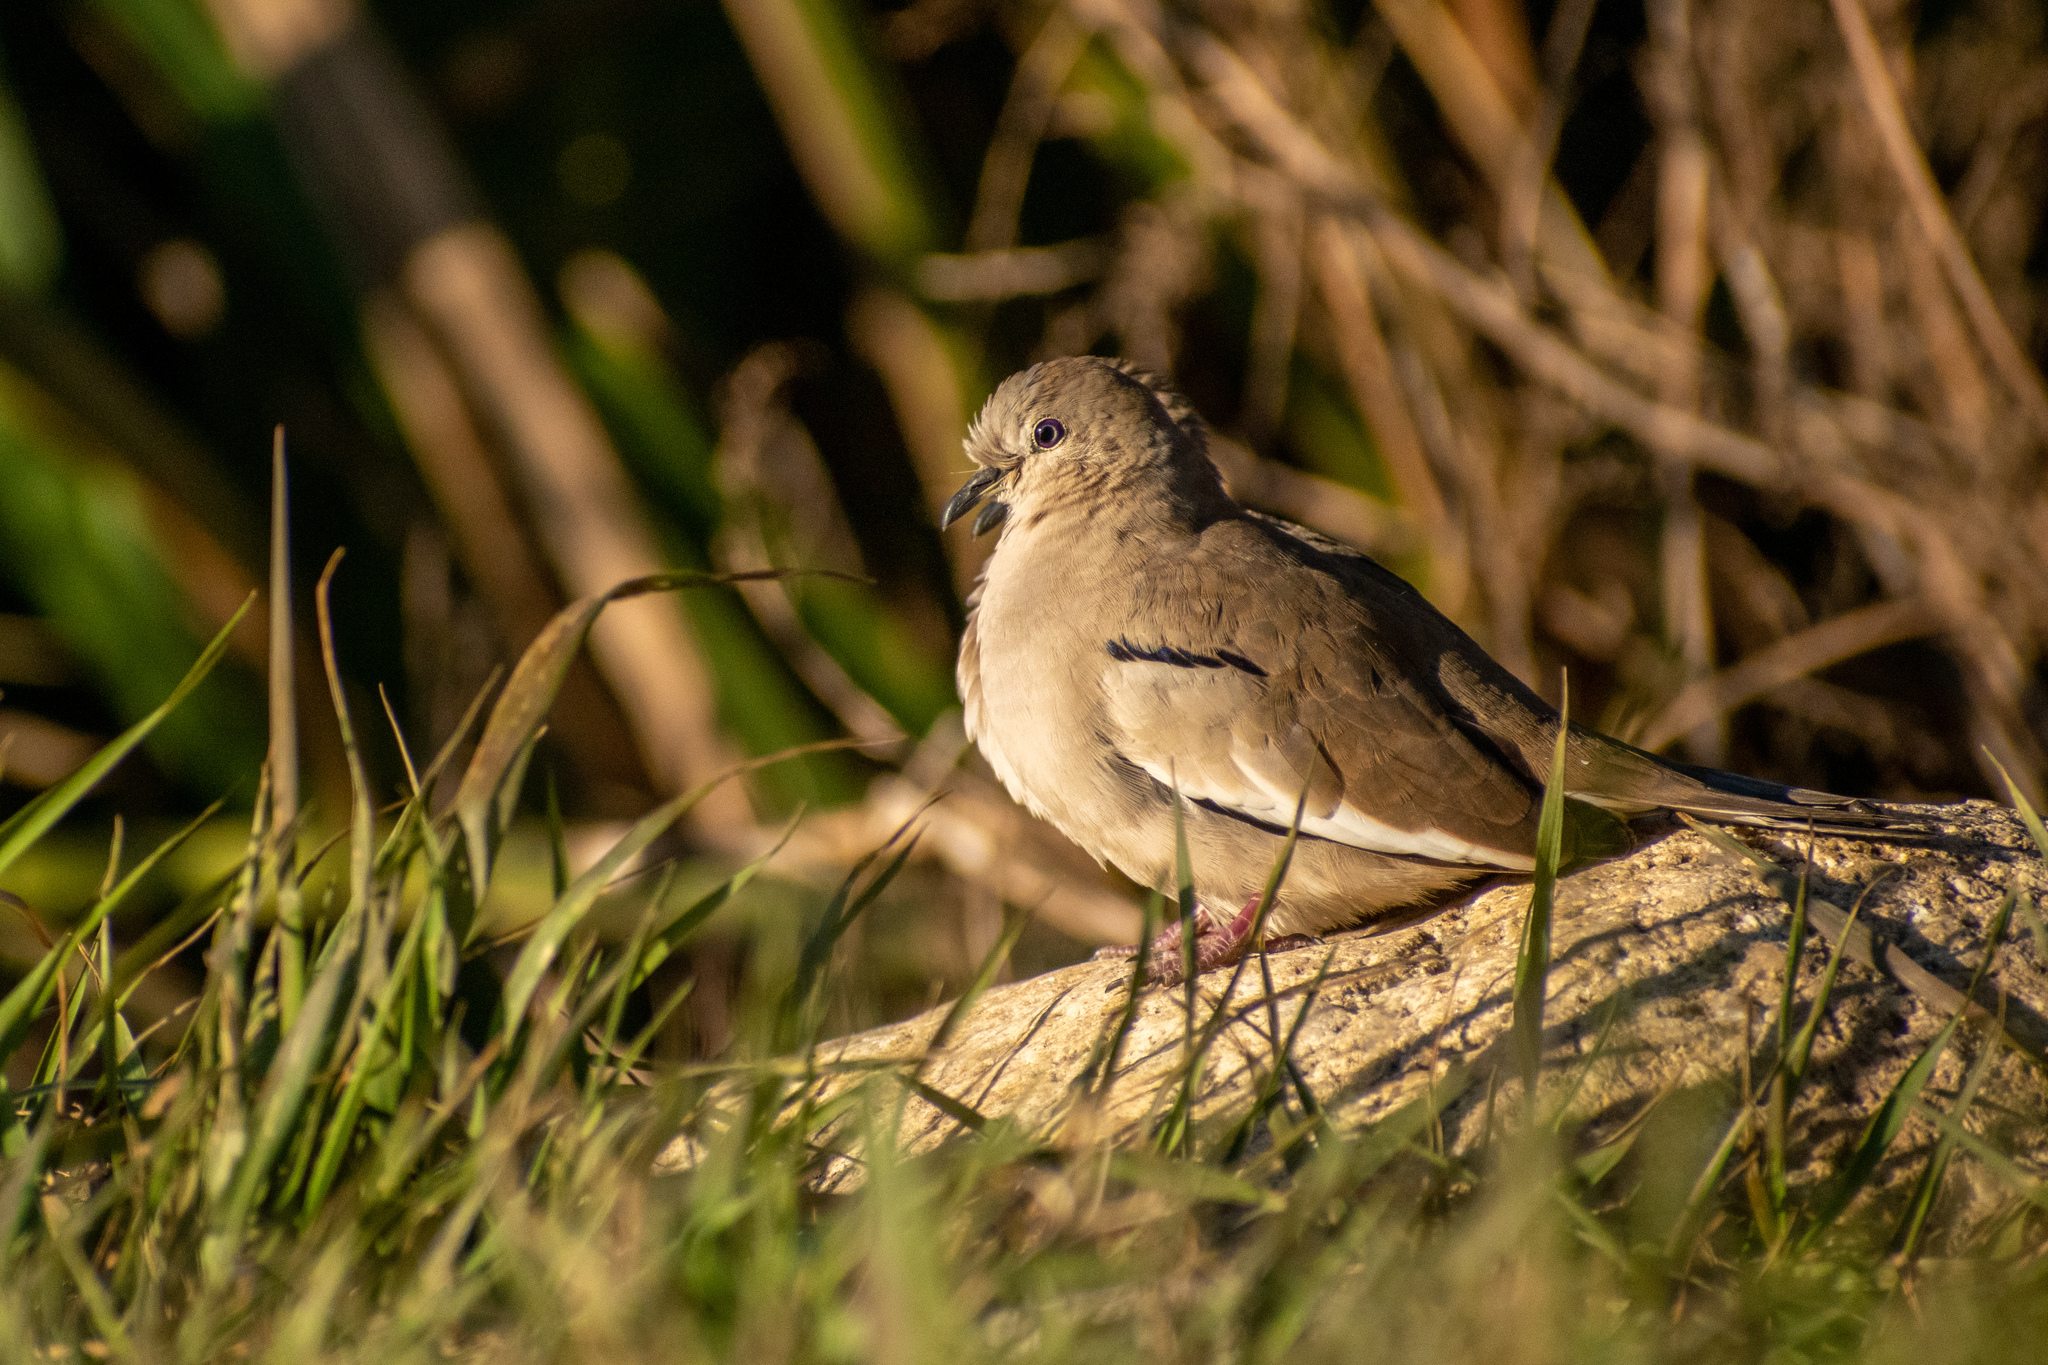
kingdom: Animalia
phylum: Chordata
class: Aves
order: Columbiformes
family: Columbidae
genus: Columbina
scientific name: Columbina picui
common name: Picui ground dove
